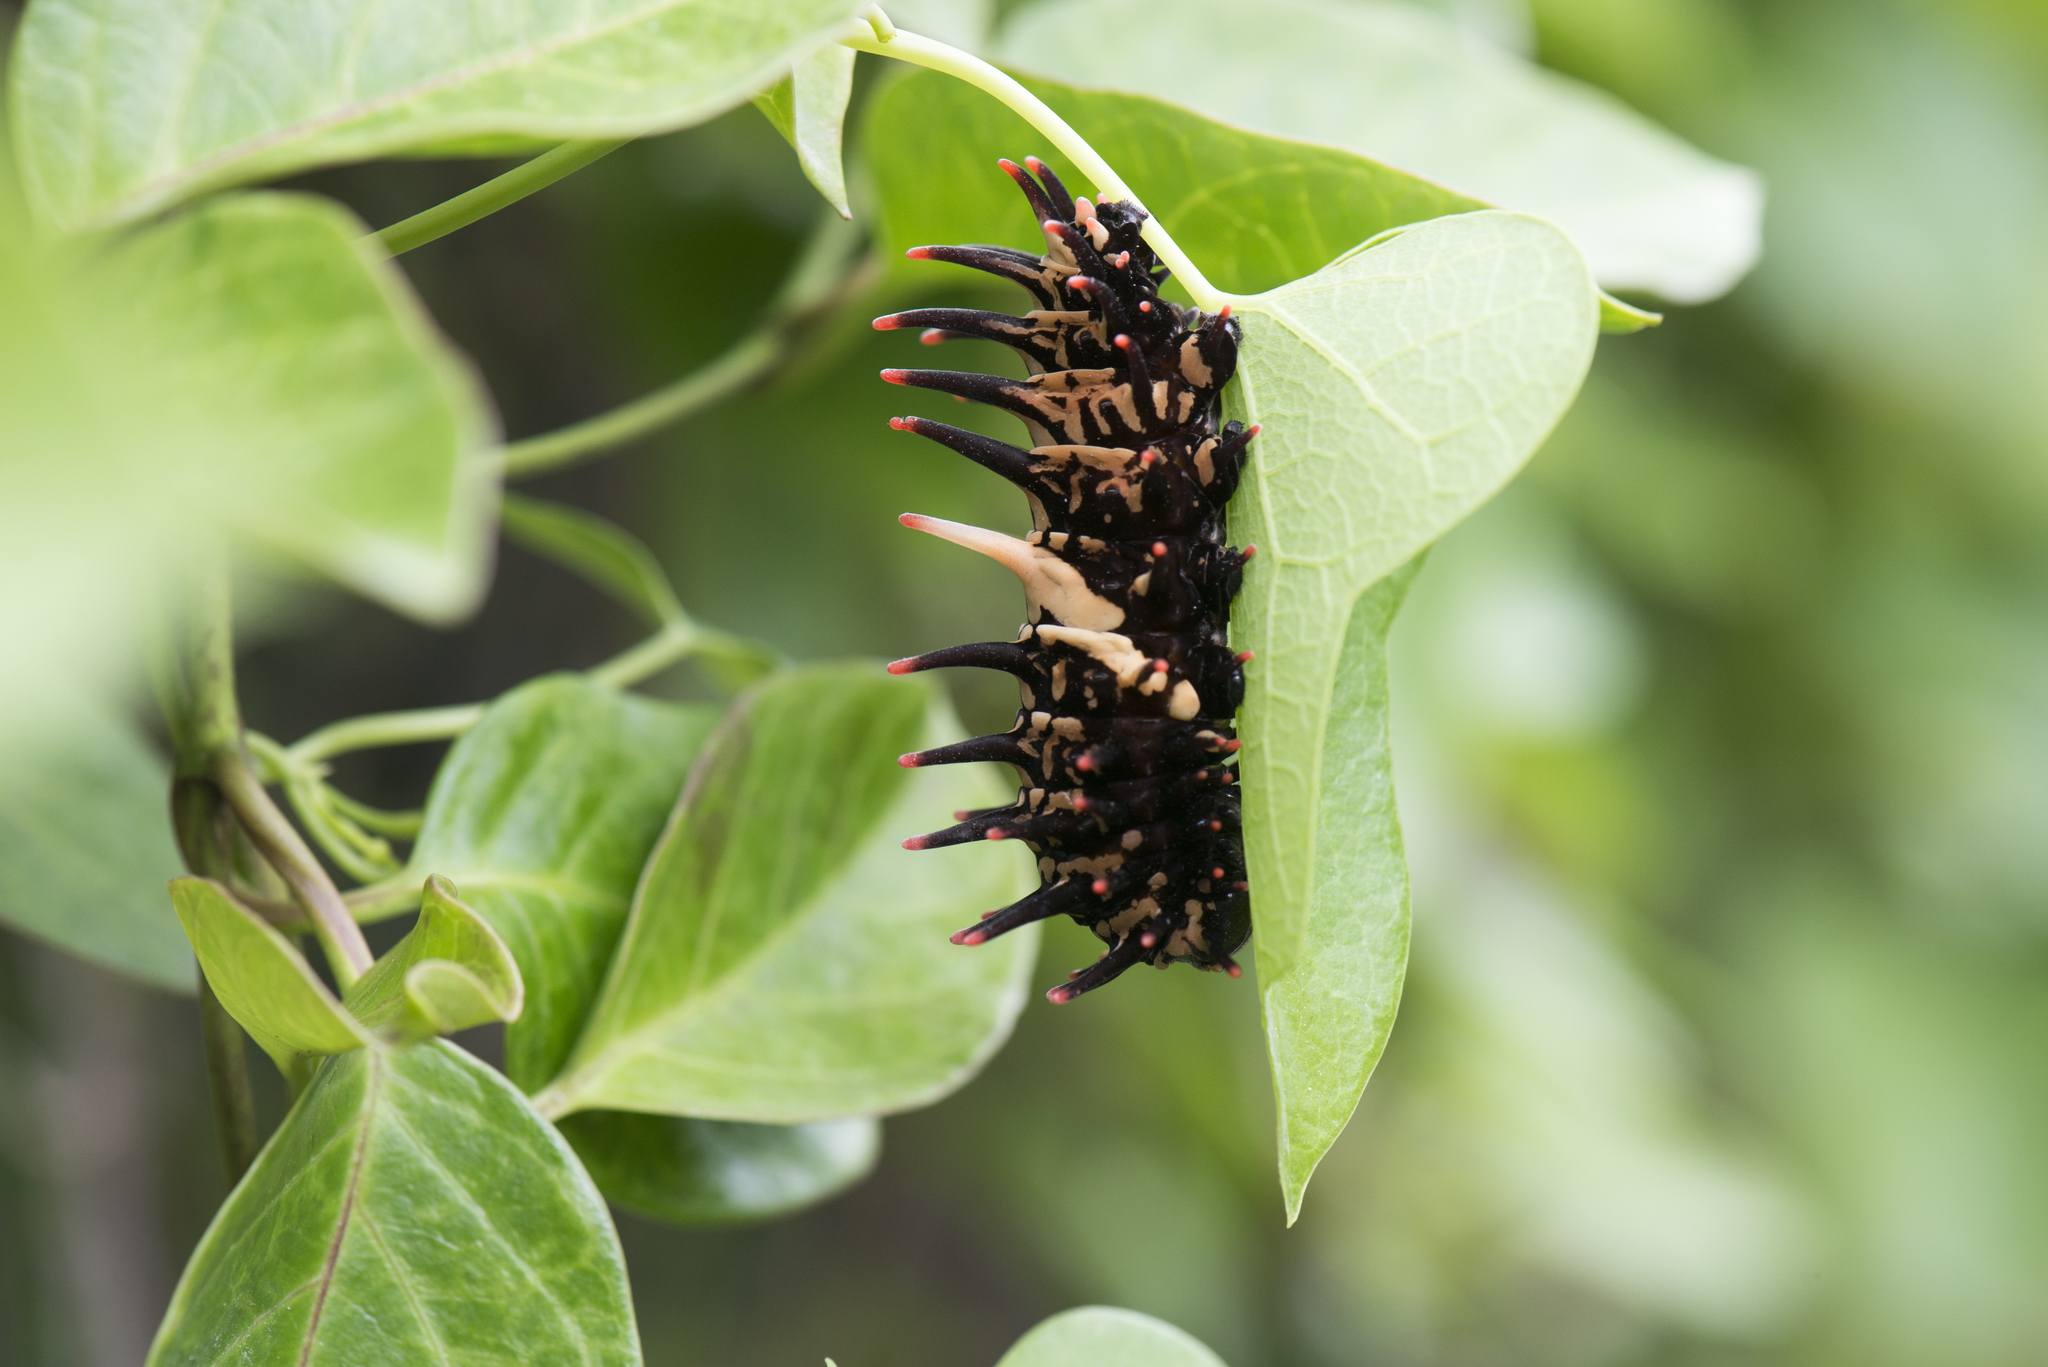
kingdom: Animalia
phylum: Arthropoda
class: Insecta
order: Lepidoptera
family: Papilionidae
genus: Troides
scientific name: Troides aeacus
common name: Golden birdwing
